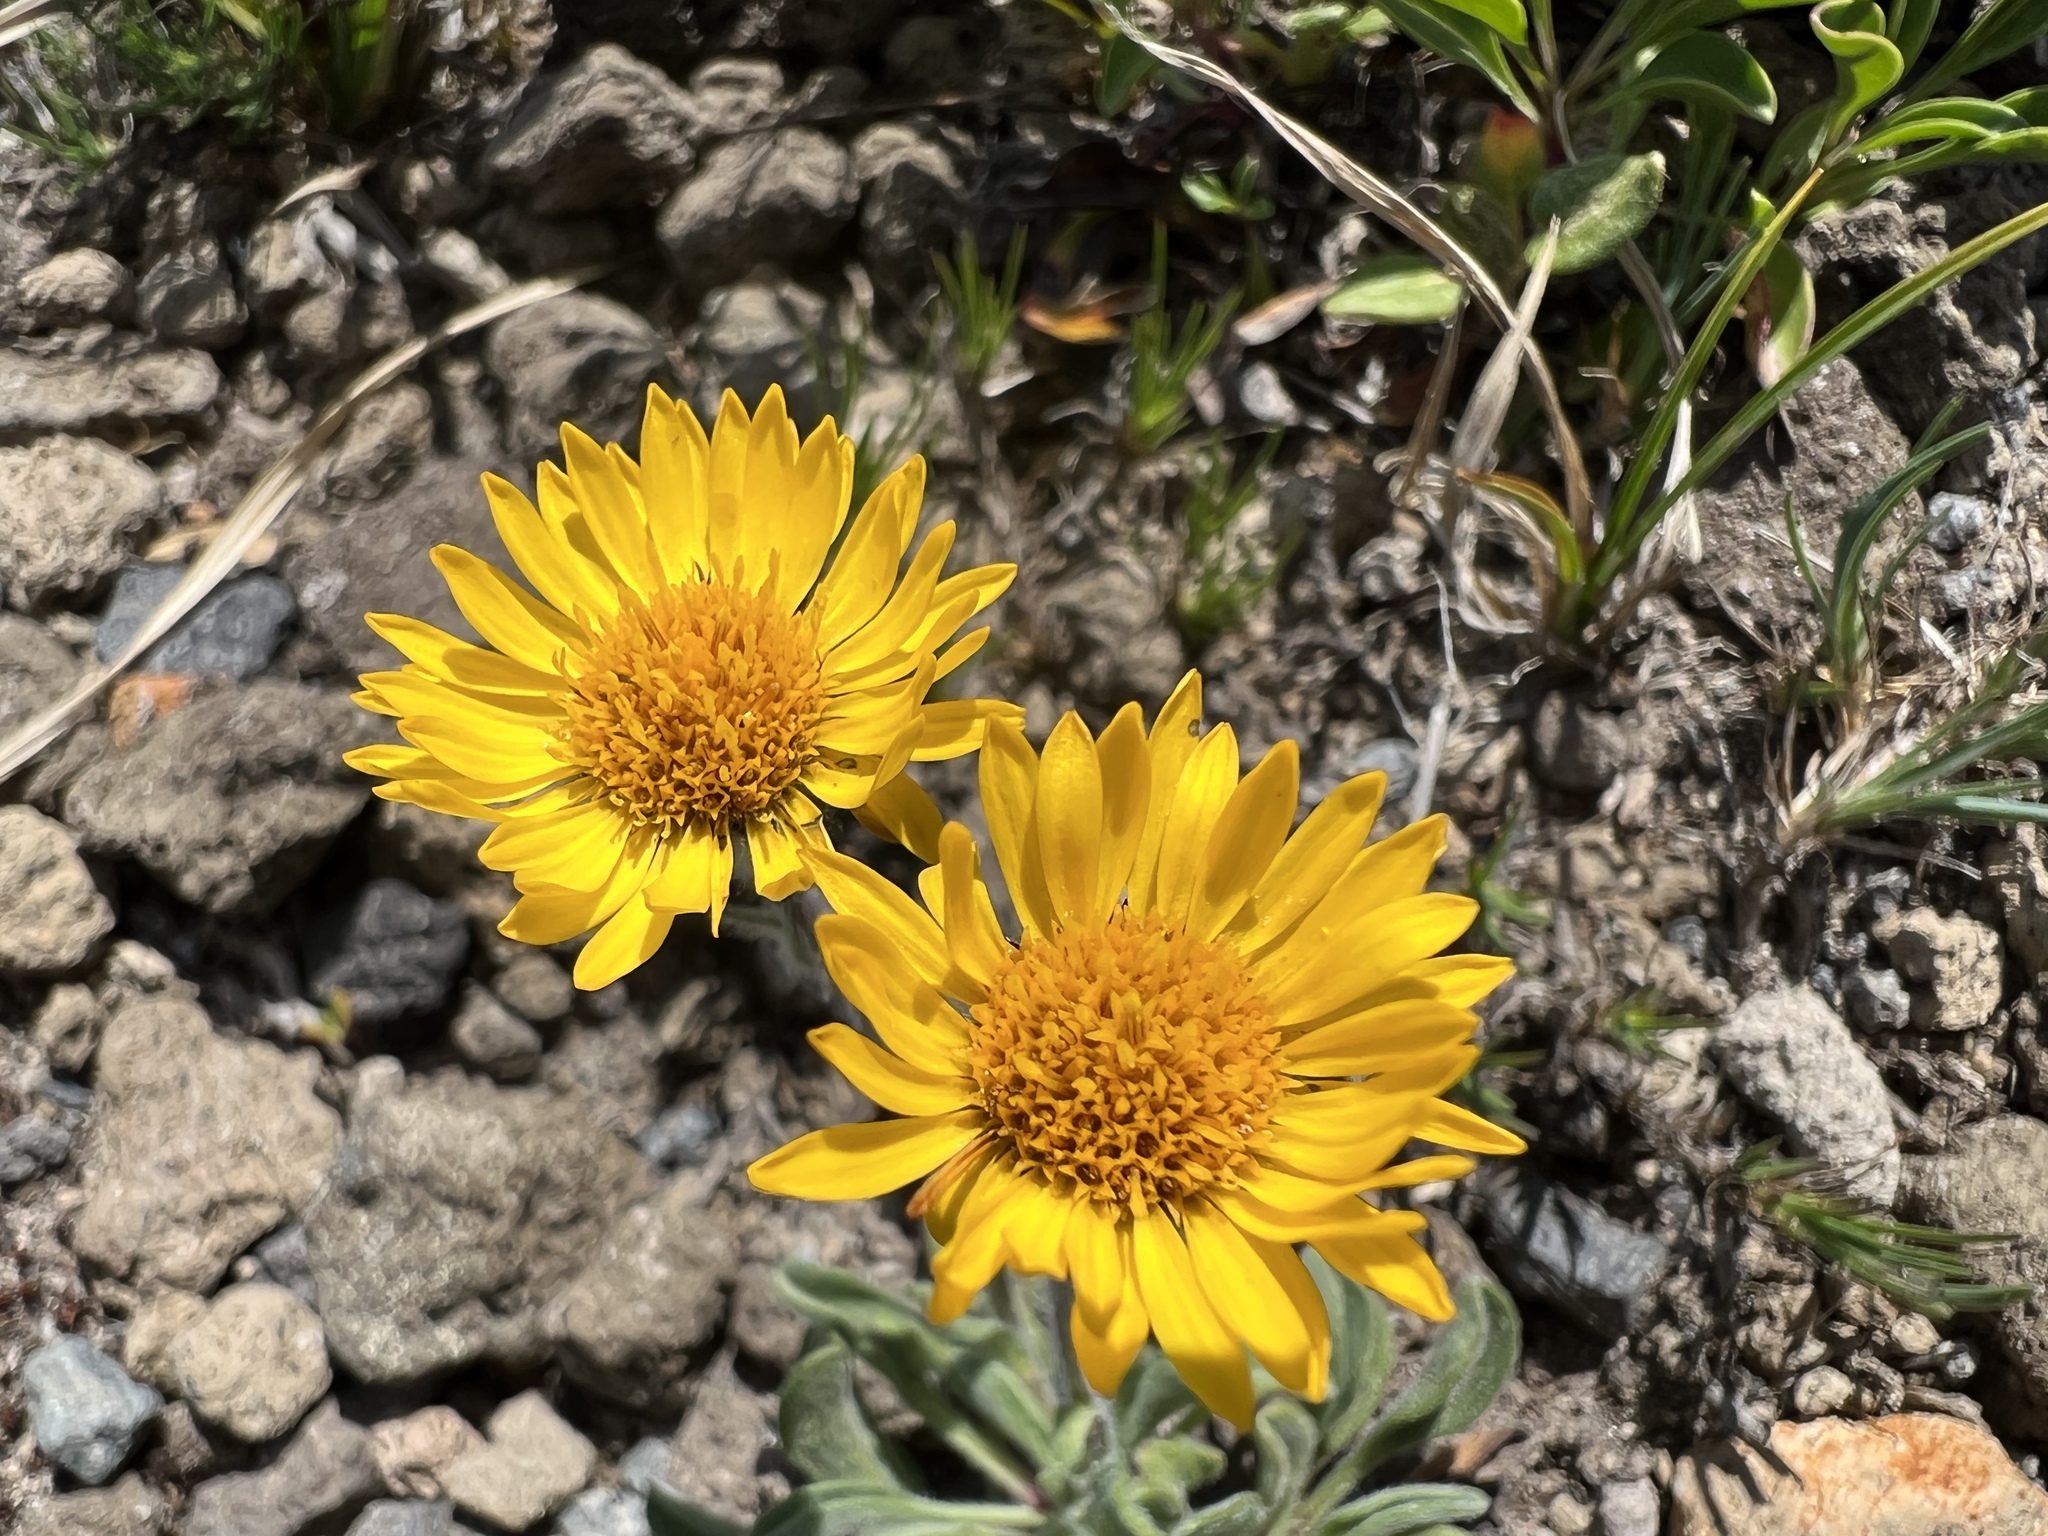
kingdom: Plantae
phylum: Tracheophyta
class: Magnoliopsida
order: Asterales
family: Asteraceae
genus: Erigeron
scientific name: Erigeron aureus
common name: Alpine yellow fleabane
